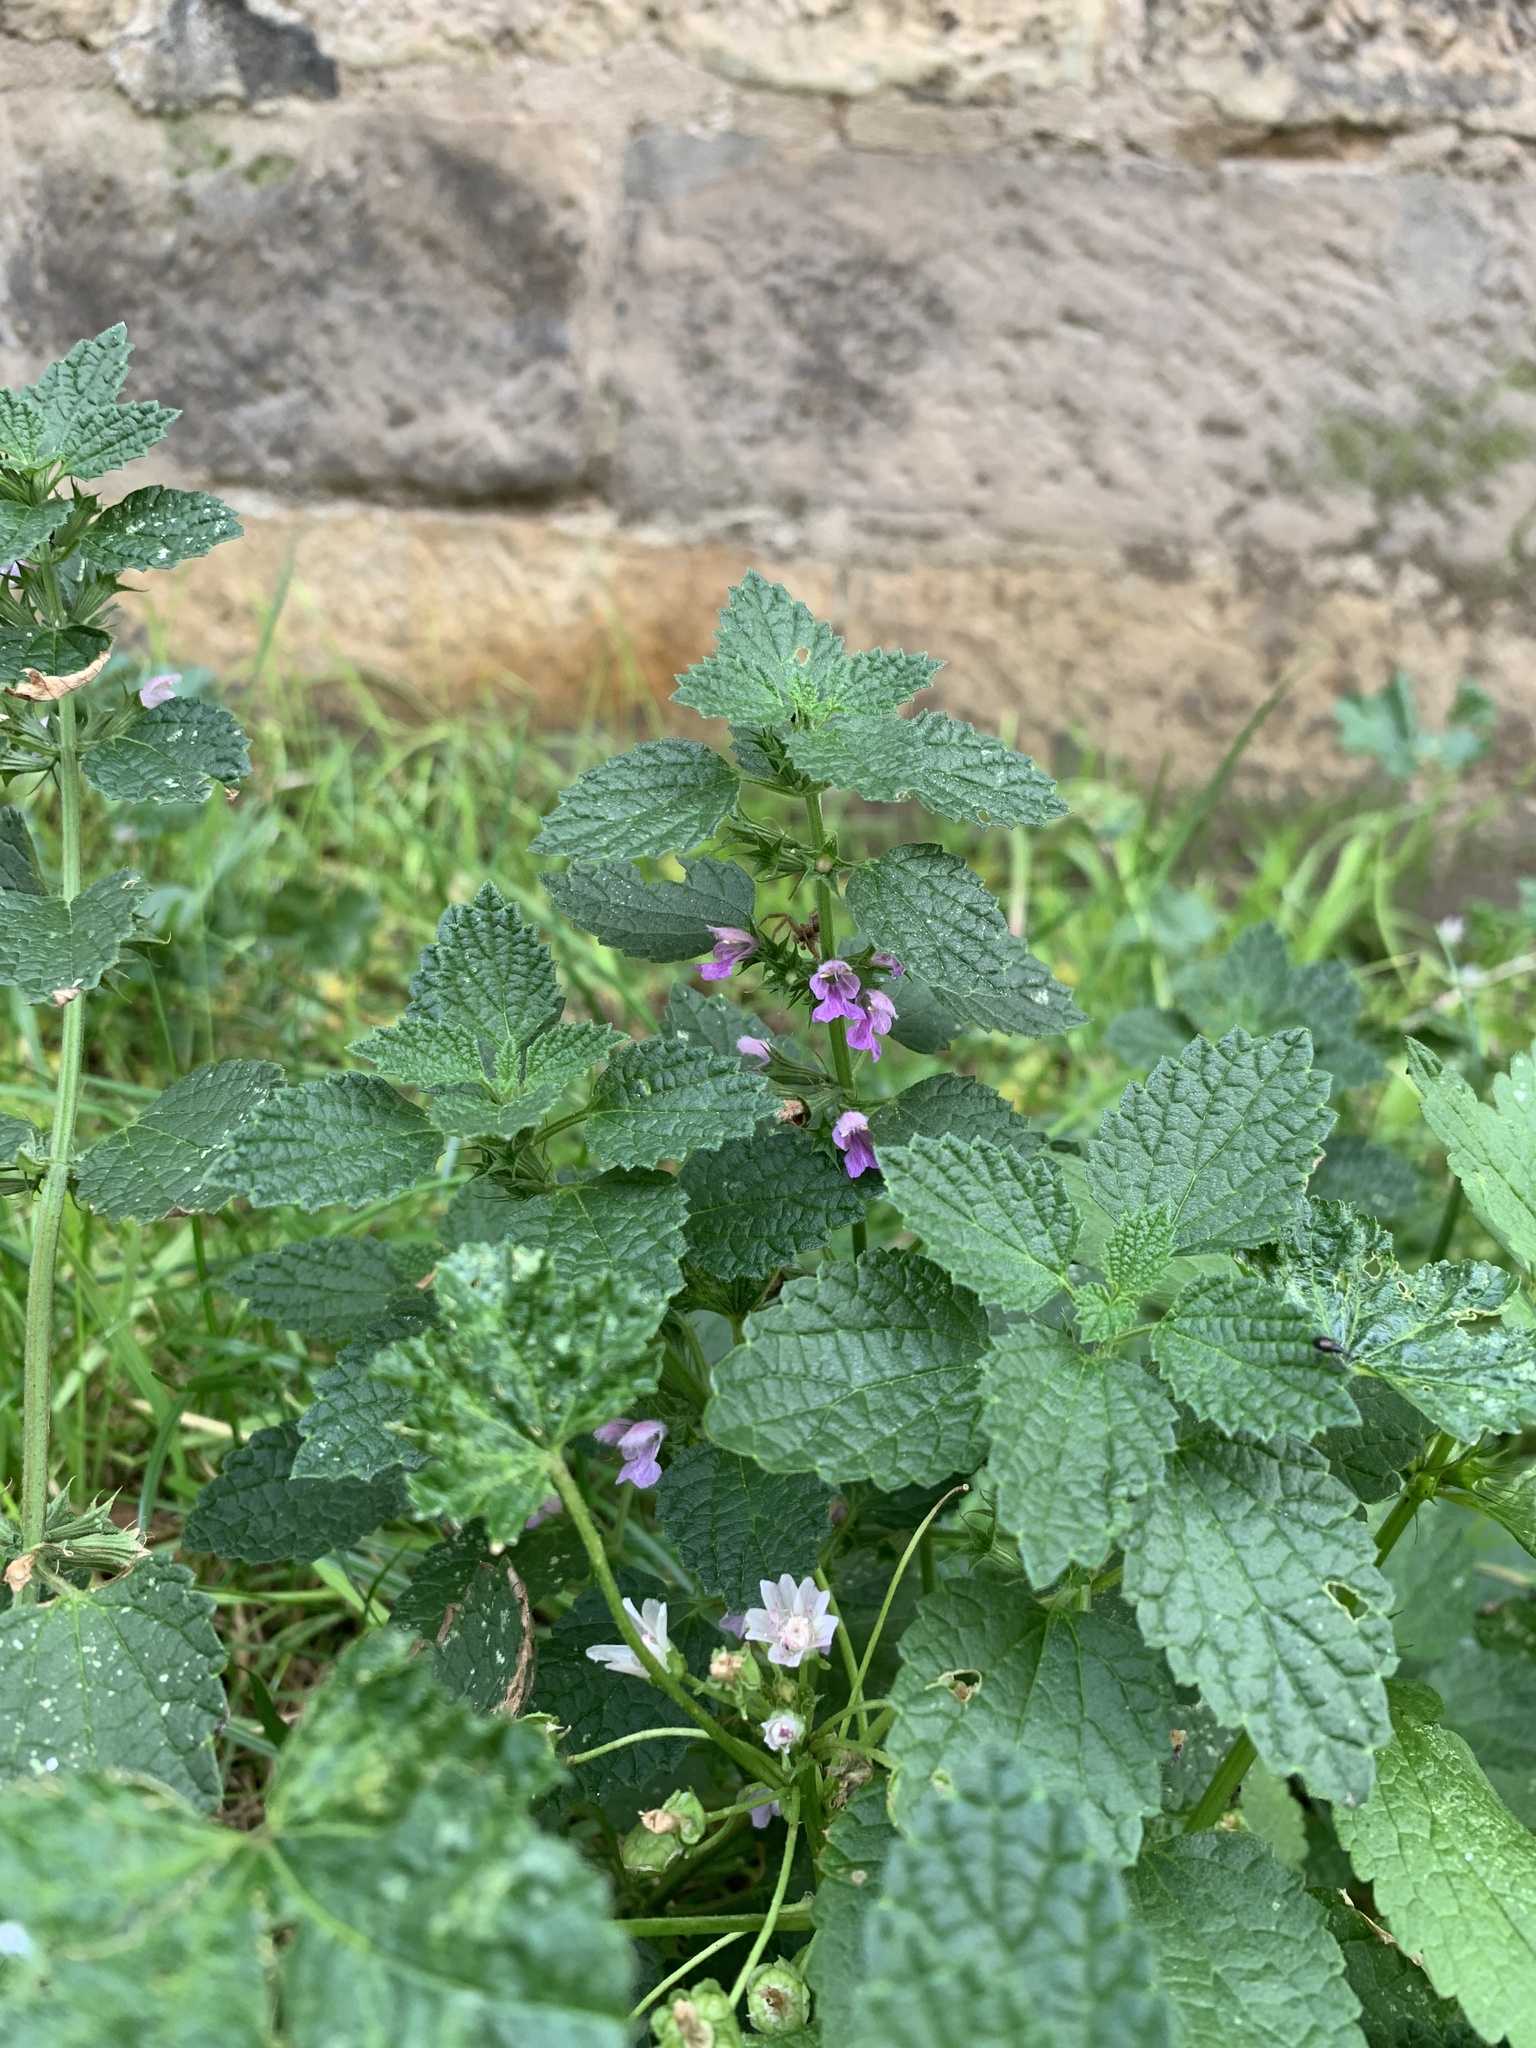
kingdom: Plantae
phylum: Tracheophyta
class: Magnoliopsida
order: Lamiales
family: Lamiaceae
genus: Ballota
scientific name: Ballota nigra
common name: Black horehound
